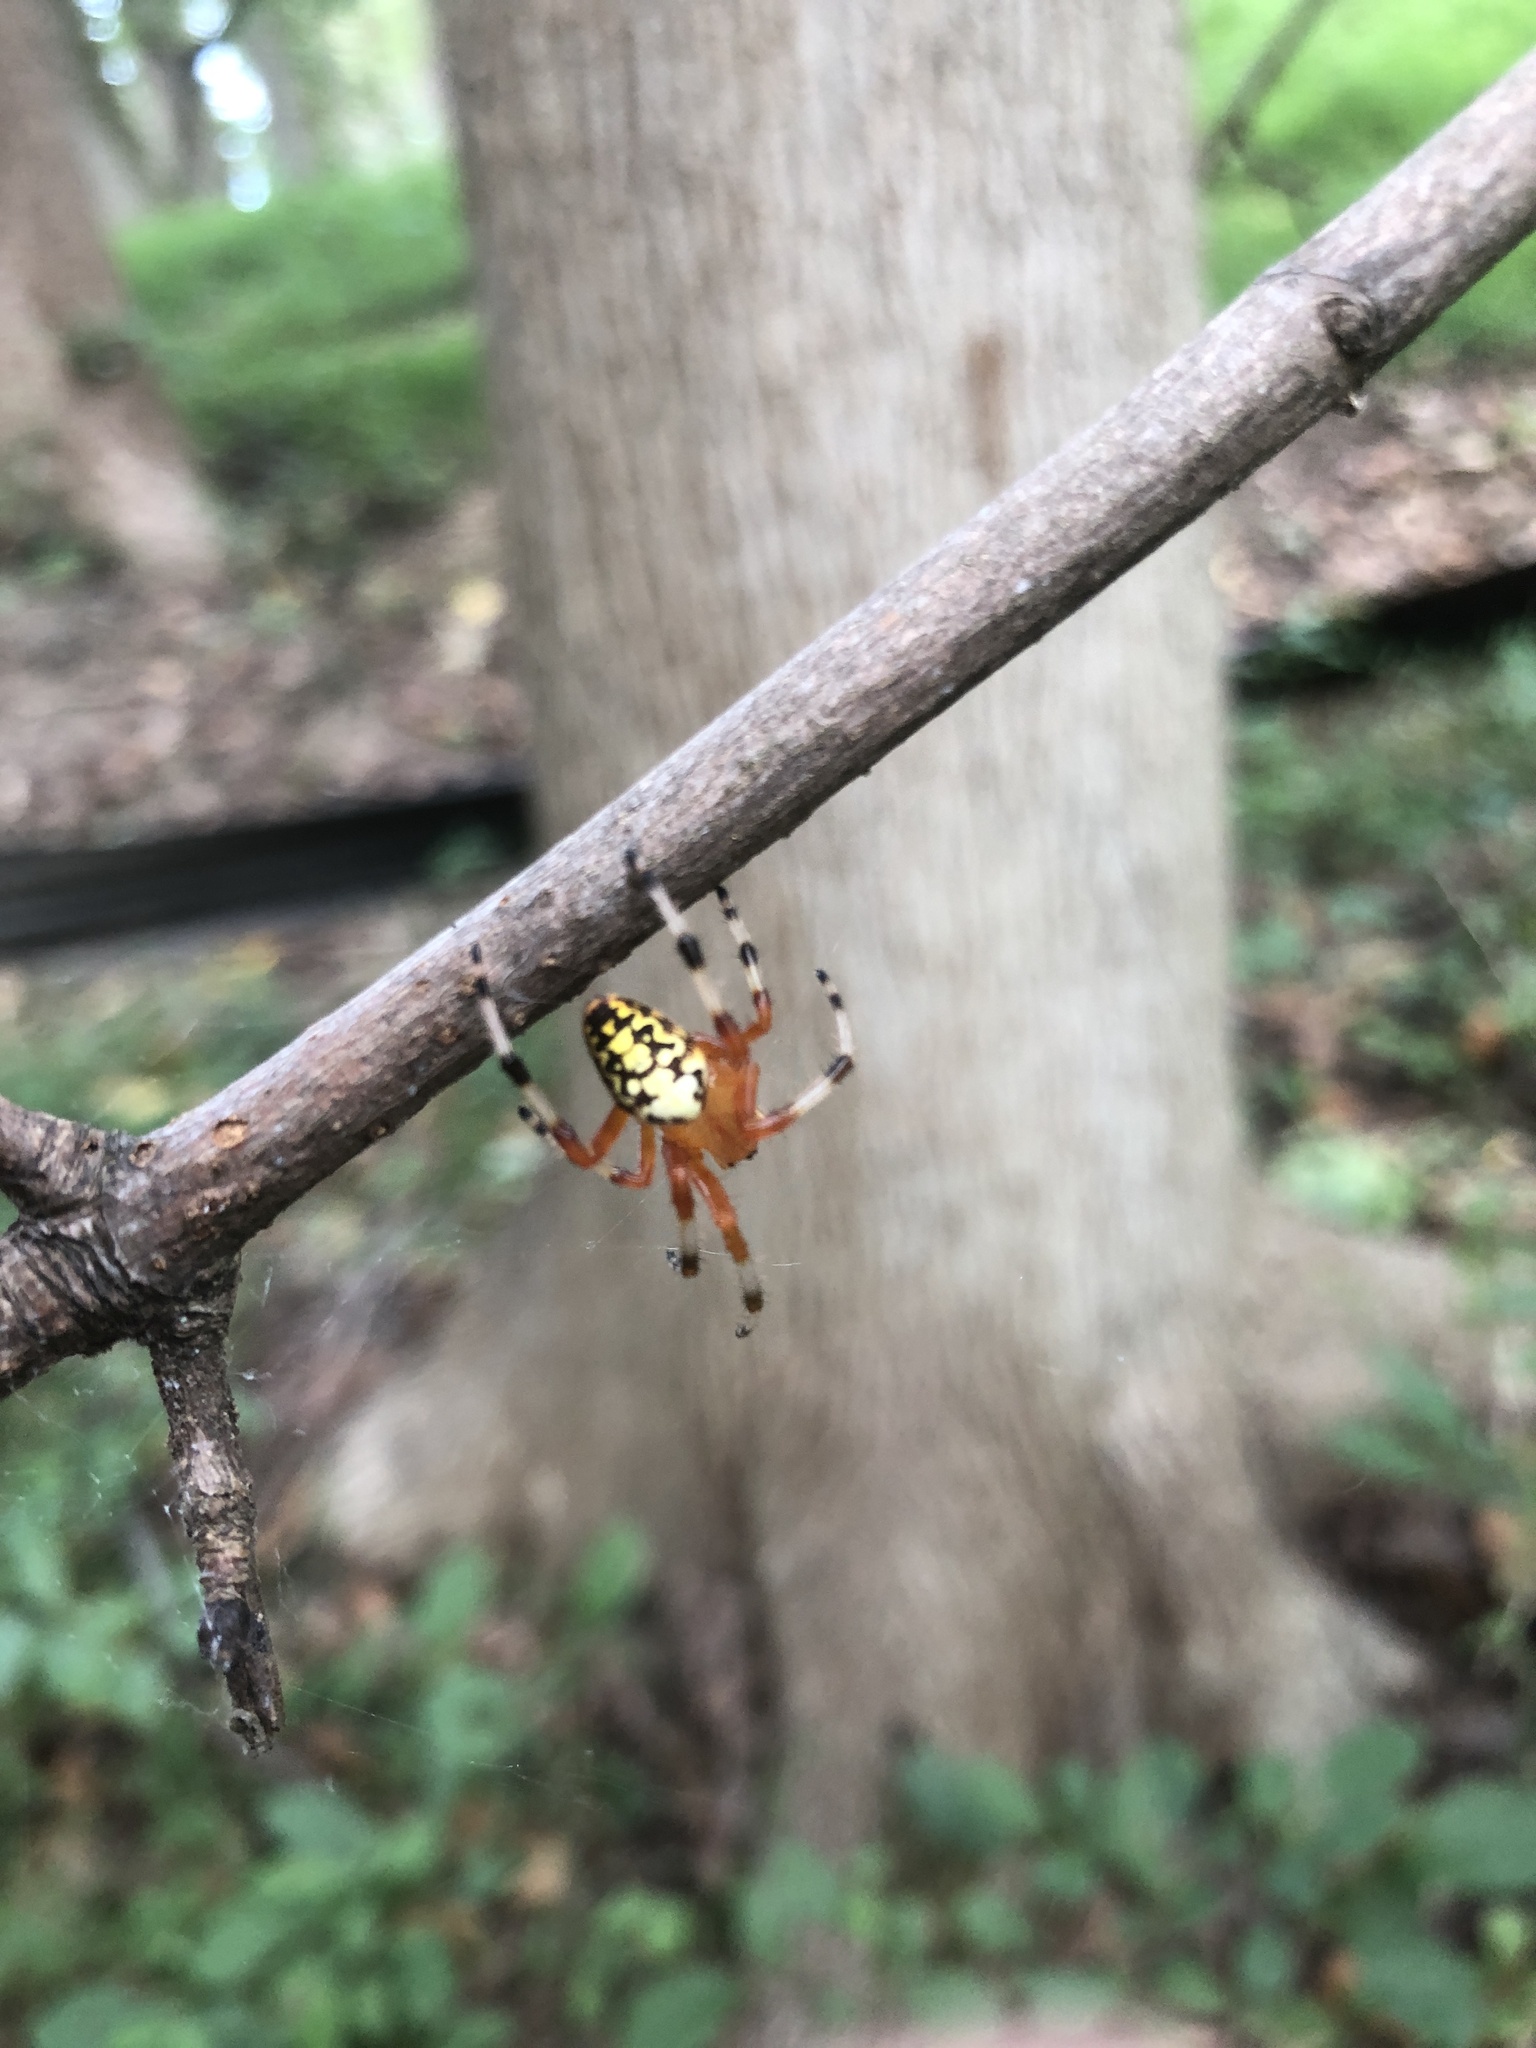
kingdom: Animalia
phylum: Arthropoda
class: Arachnida
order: Araneae
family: Araneidae
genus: Araneus
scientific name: Araneus marmoreus
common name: Marbled orbweaver
